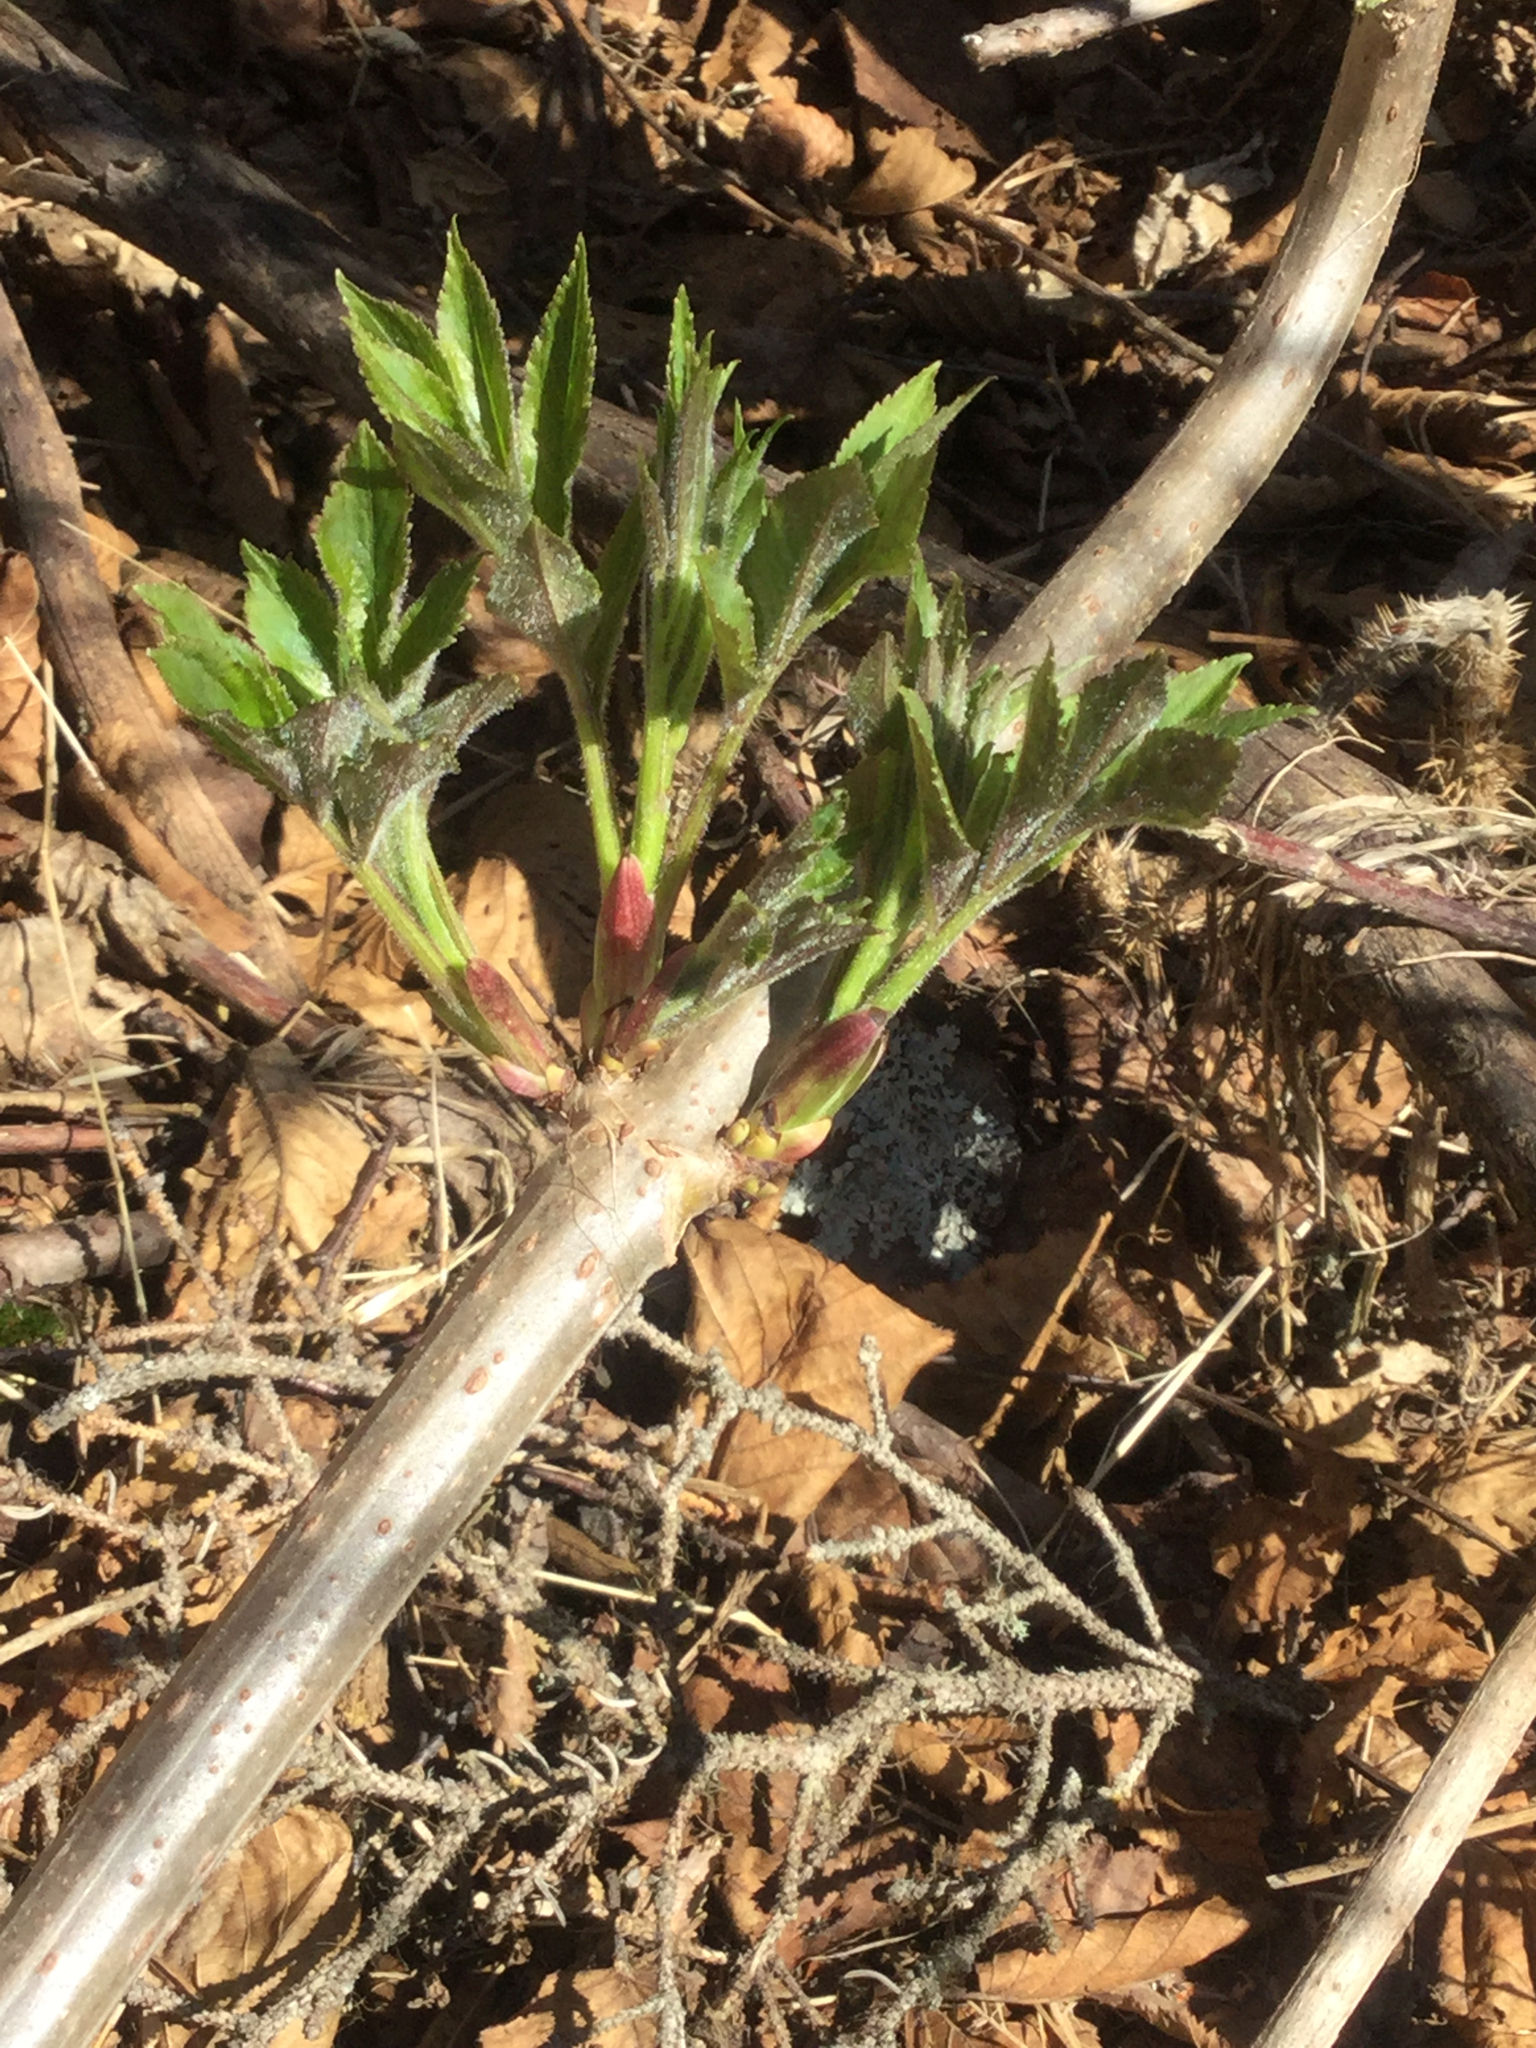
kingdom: Plantae
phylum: Tracheophyta
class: Magnoliopsida
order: Dipsacales
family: Viburnaceae
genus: Sambucus
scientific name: Sambucus racemosa
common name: Red-berried elder
